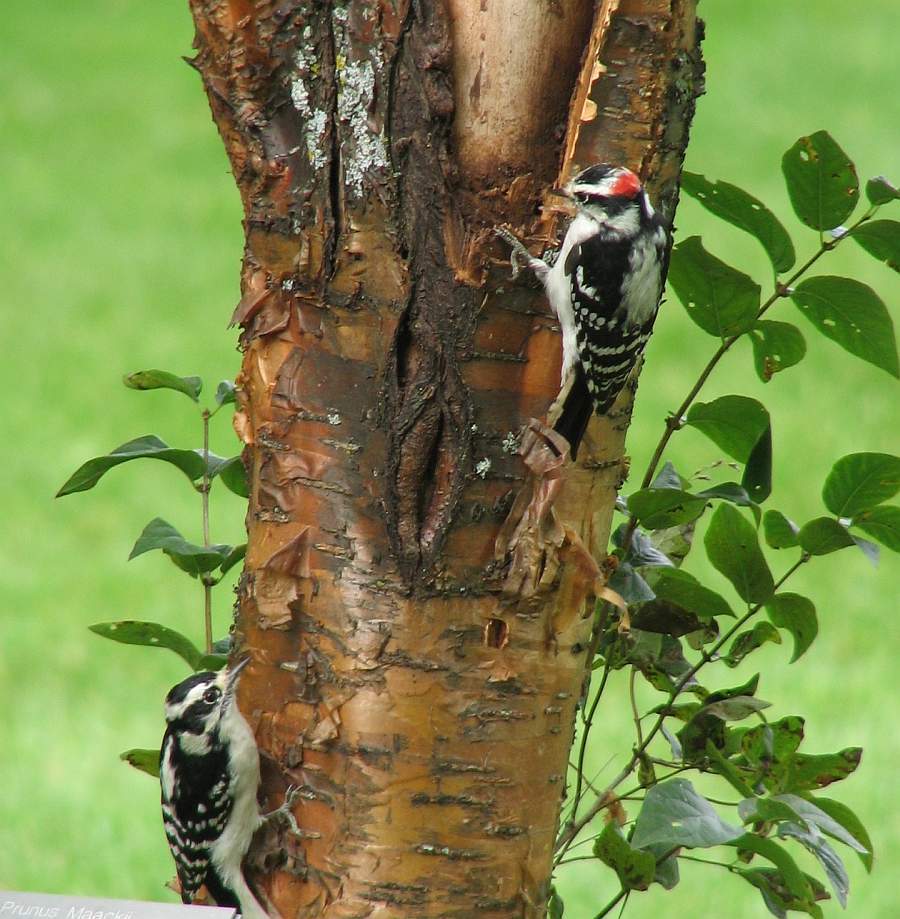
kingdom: Animalia
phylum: Chordata
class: Aves
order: Piciformes
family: Picidae
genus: Dryobates
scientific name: Dryobates pubescens
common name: Downy woodpecker
